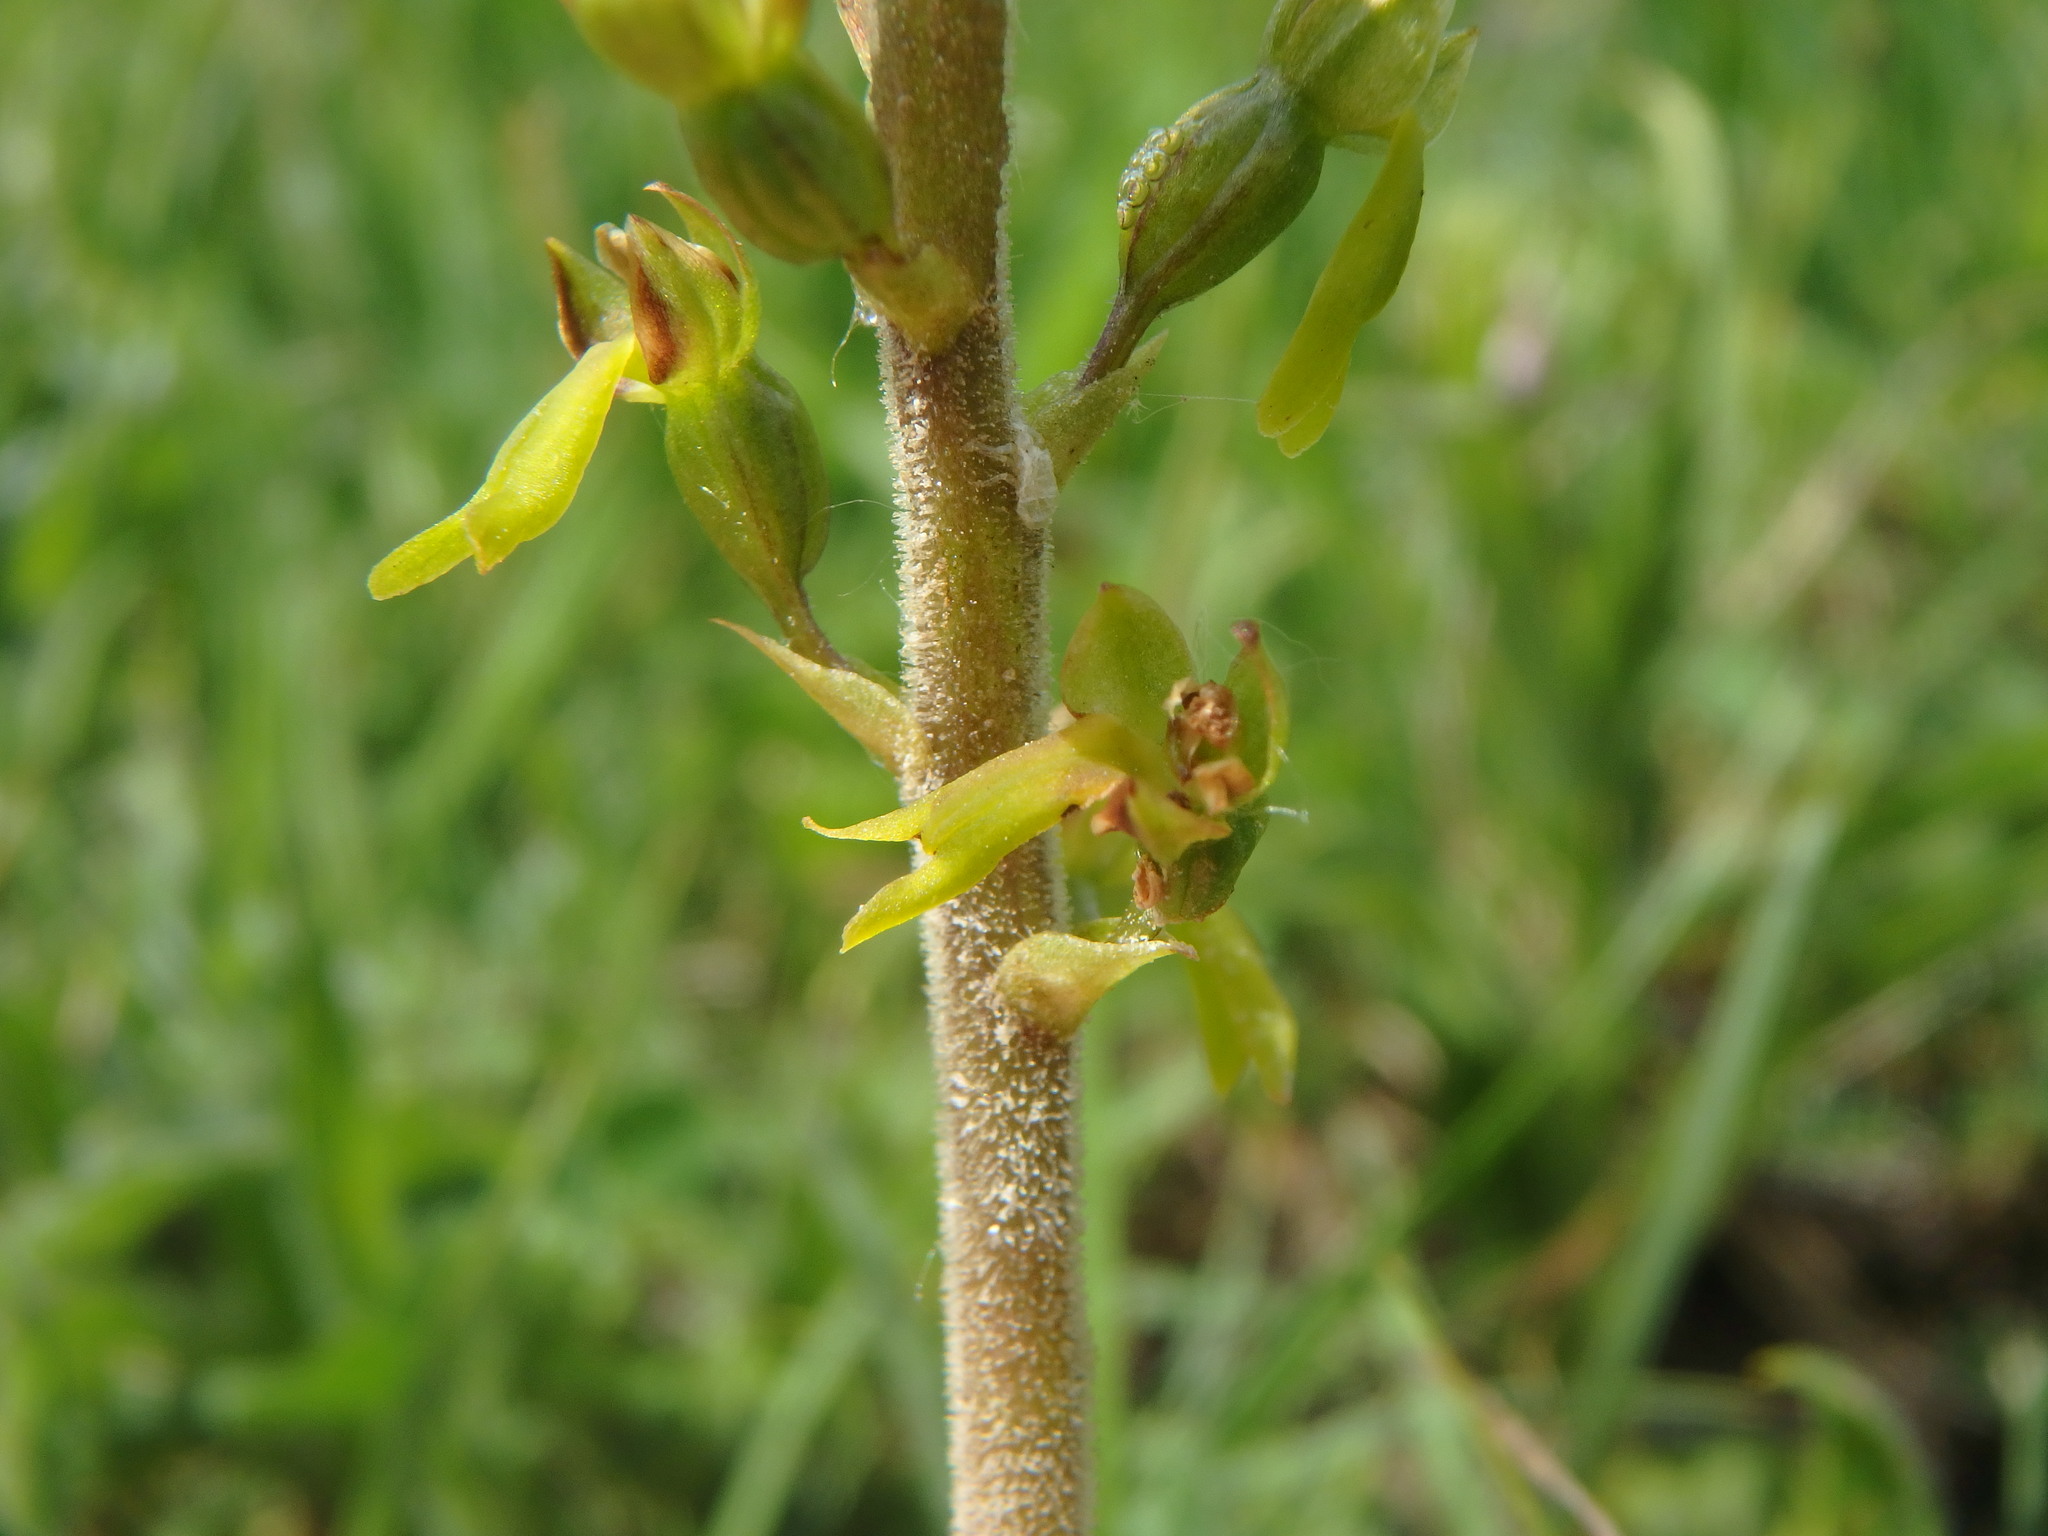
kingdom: Plantae
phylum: Tracheophyta
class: Liliopsida
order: Asparagales
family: Orchidaceae
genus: Neottia
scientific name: Neottia ovata
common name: Common twayblade
